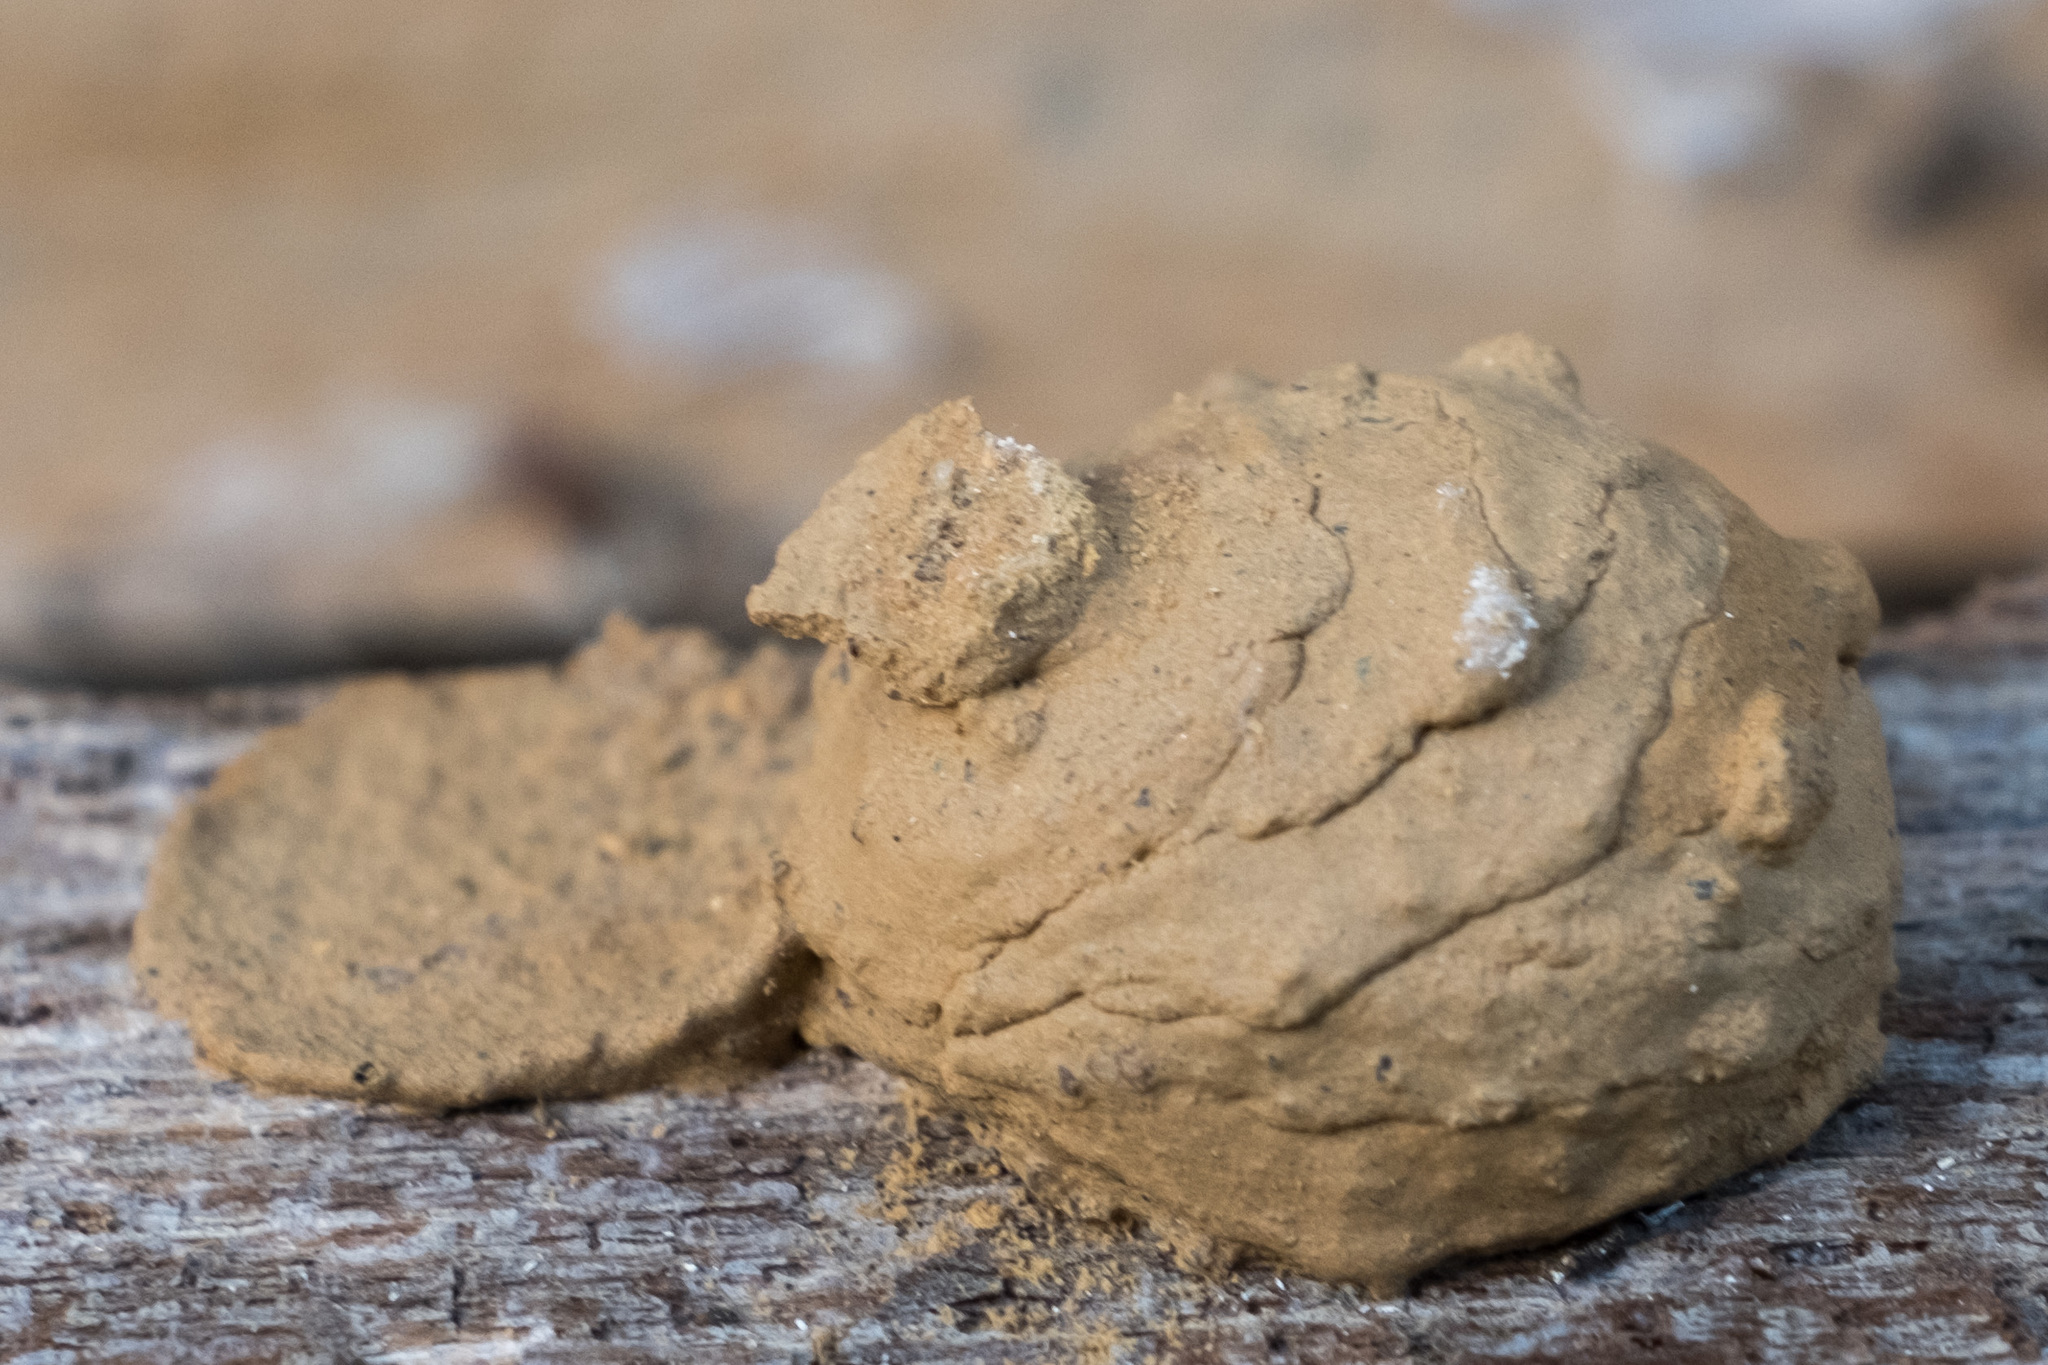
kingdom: Animalia
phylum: Arthropoda
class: Insecta
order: Hymenoptera
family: Vespidae
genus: Eumenes
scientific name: Eumenes
